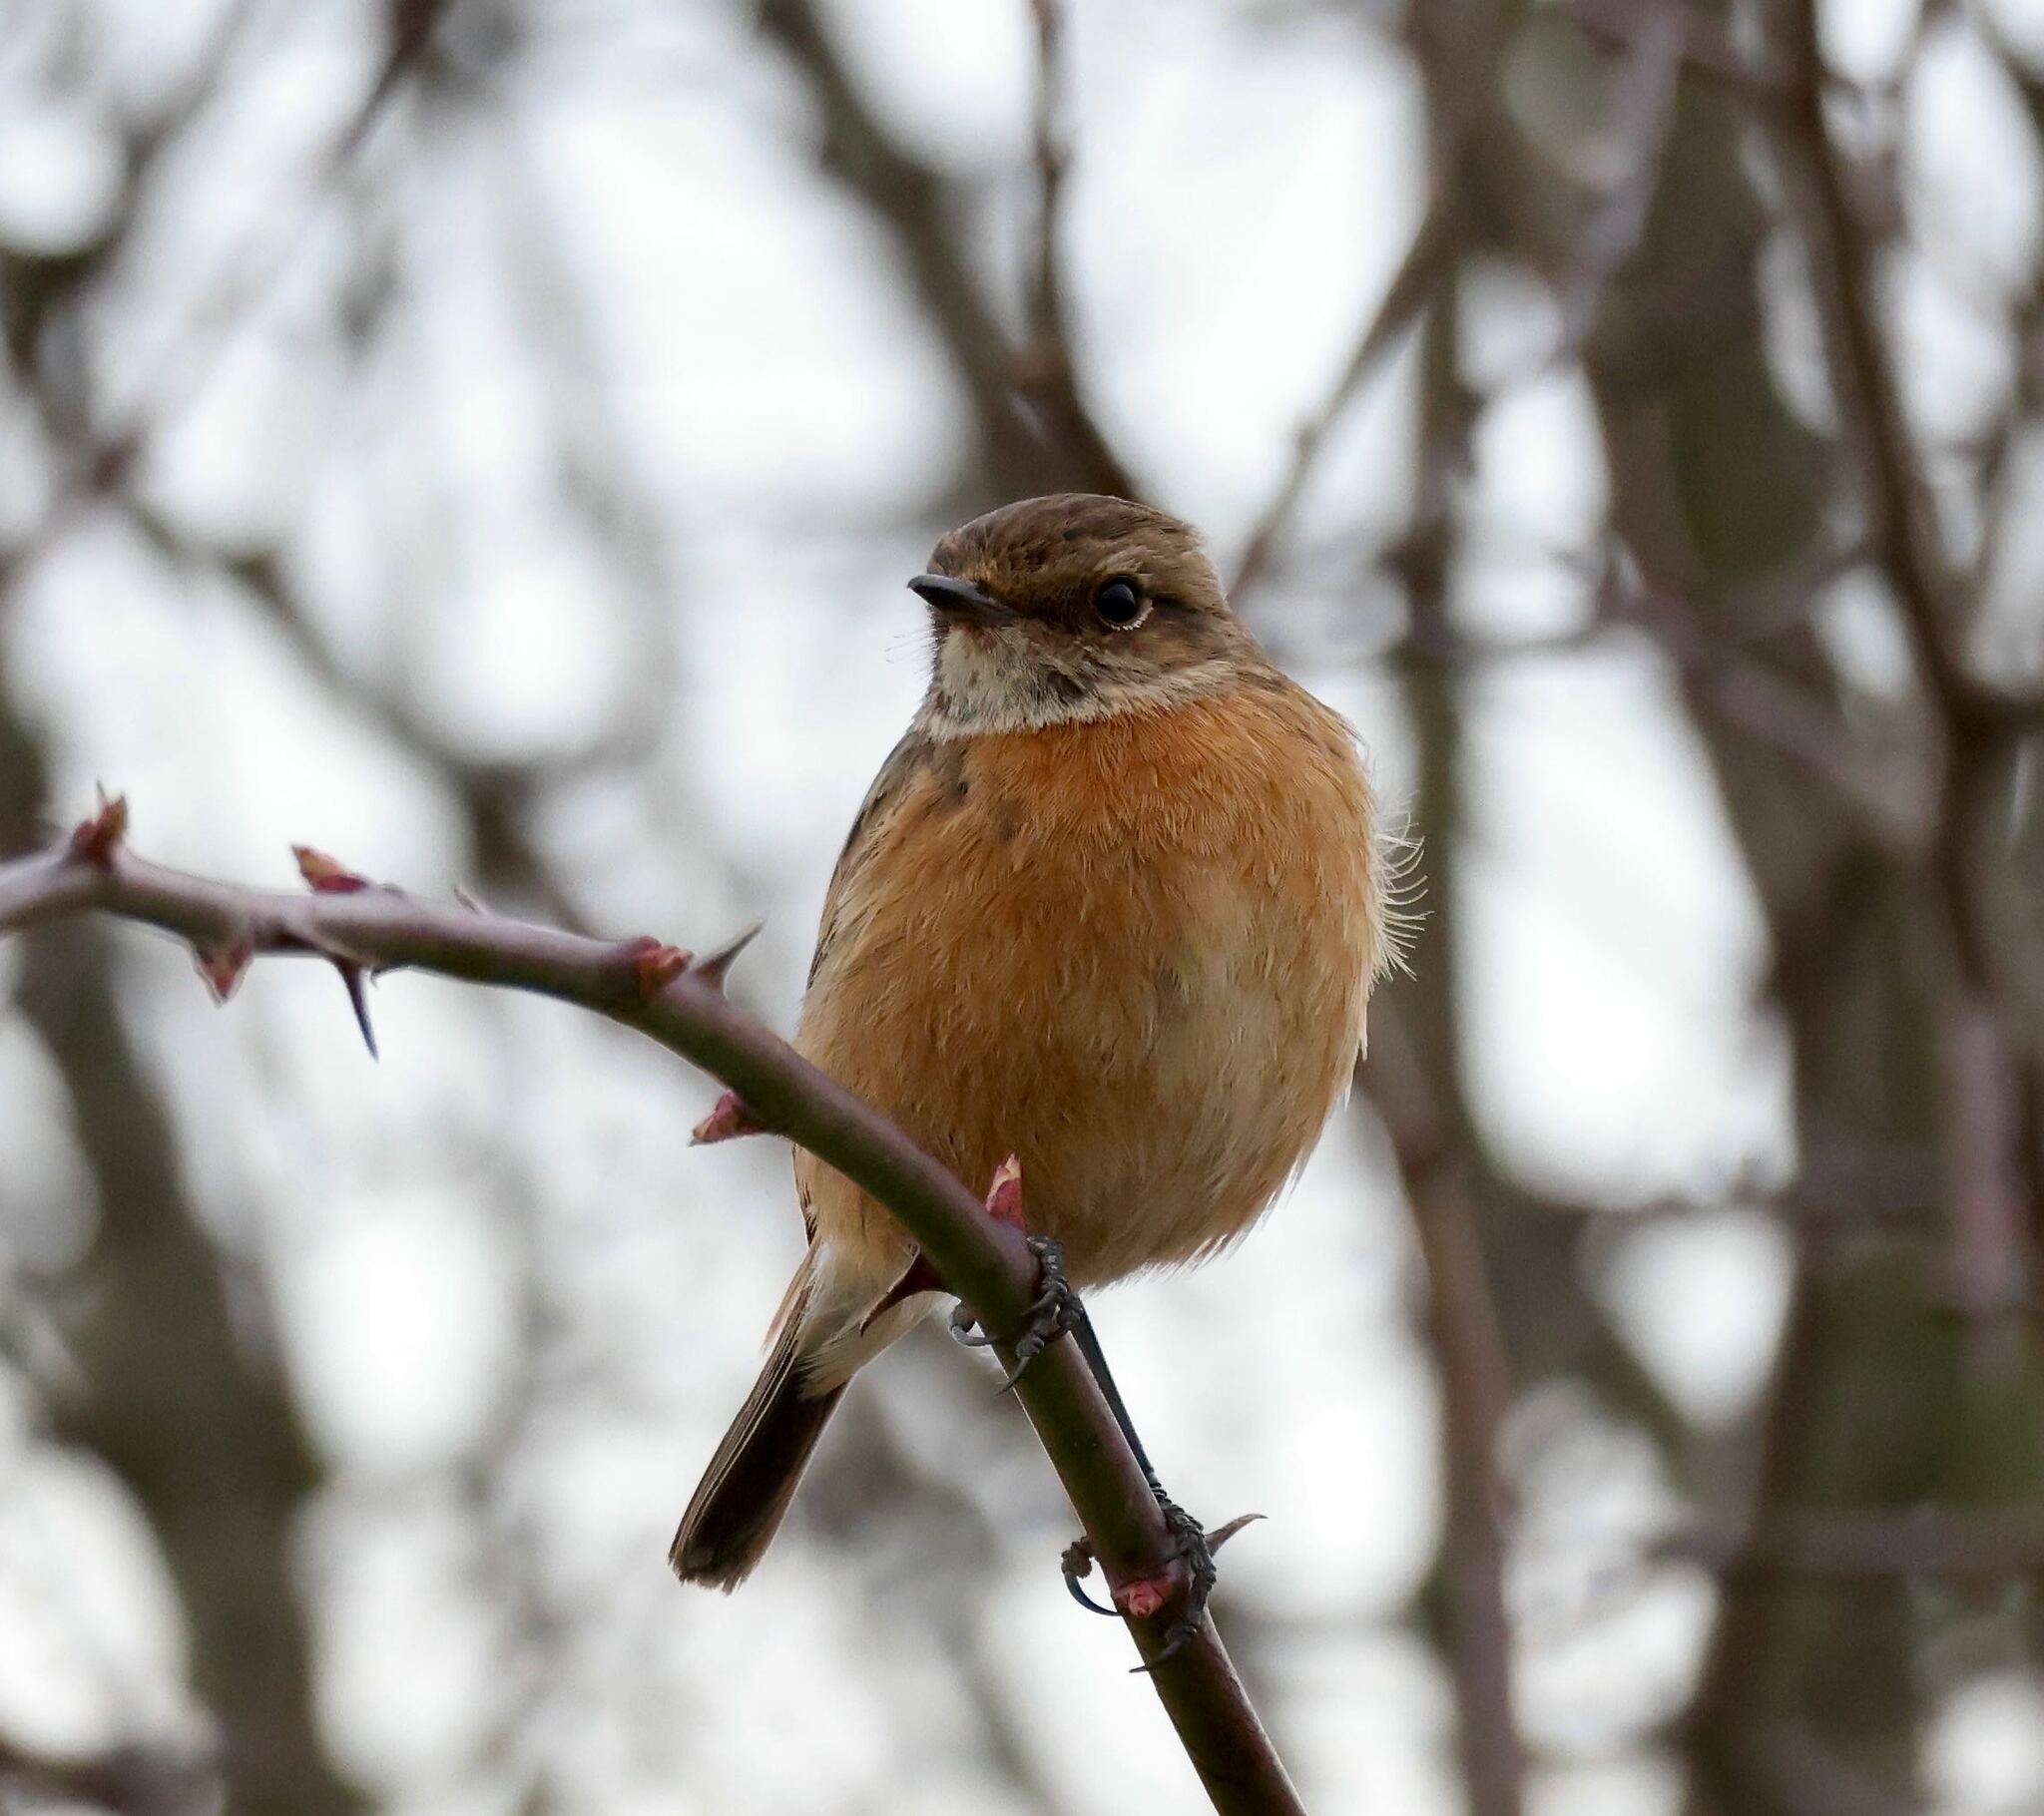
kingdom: Animalia
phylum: Chordata
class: Aves
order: Passeriformes
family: Muscicapidae
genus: Saxicola
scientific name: Saxicola rubicola
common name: European stonechat
